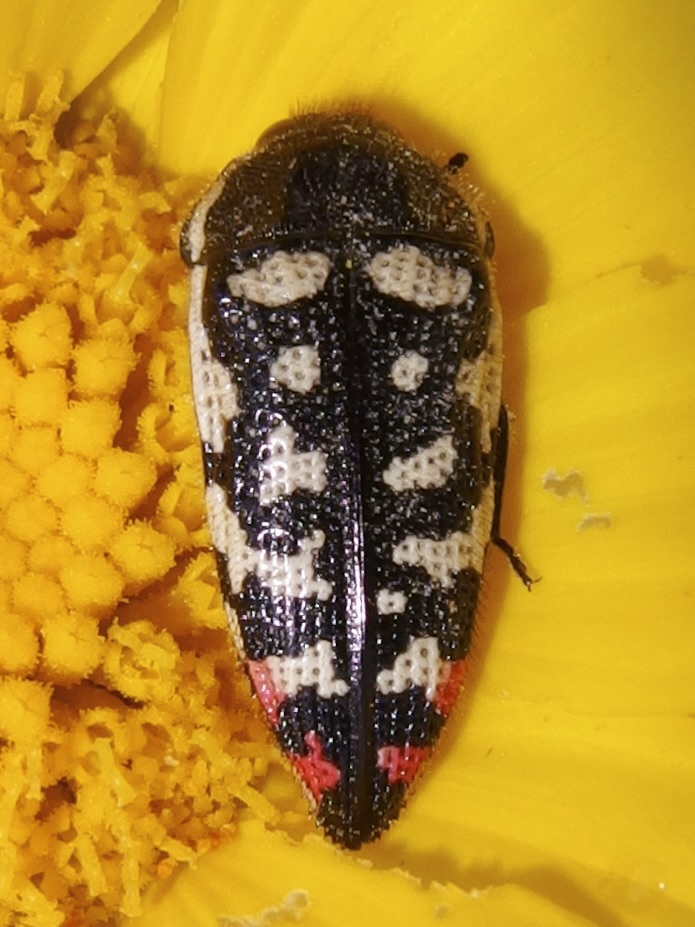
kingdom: Animalia
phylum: Arthropoda
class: Insecta
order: Coleoptera
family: Buprestidae
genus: Acmaeodera
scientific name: Acmaeodera opacula
